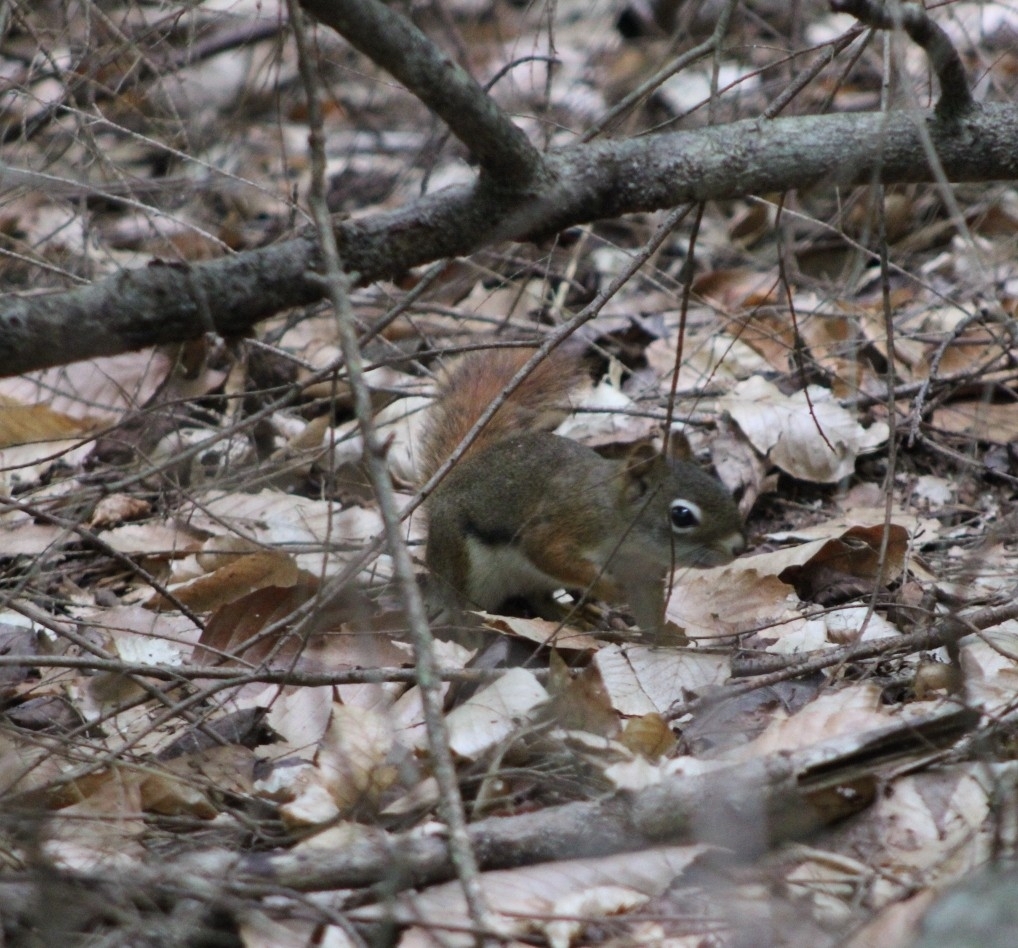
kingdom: Animalia
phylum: Chordata
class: Mammalia
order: Rodentia
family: Sciuridae
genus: Tamiasciurus
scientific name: Tamiasciurus hudsonicus
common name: Red squirrel
